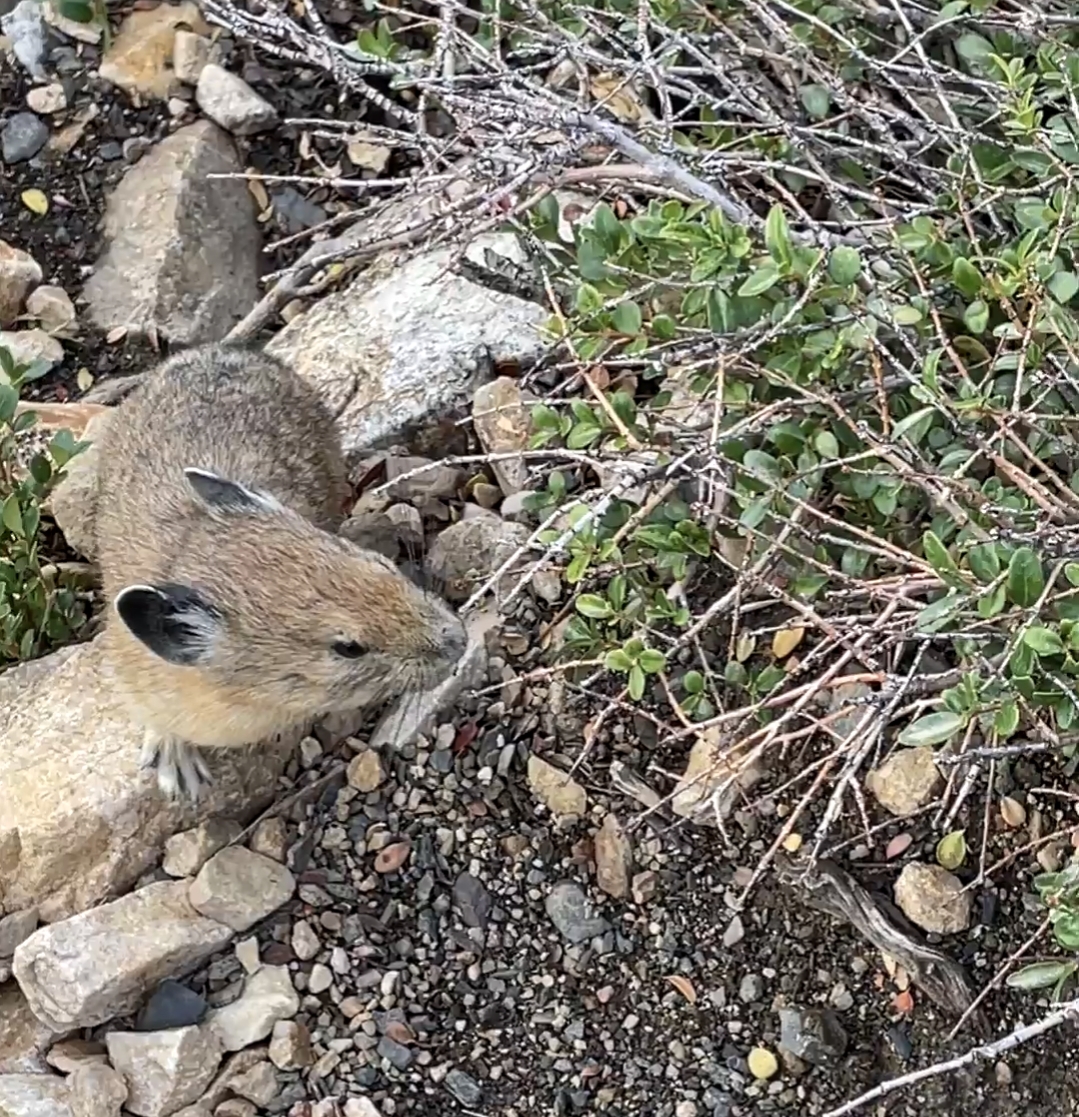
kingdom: Animalia
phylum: Chordata
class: Mammalia
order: Lagomorpha
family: Ochotonidae
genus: Ochotona
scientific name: Ochotona princeps
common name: American pika
